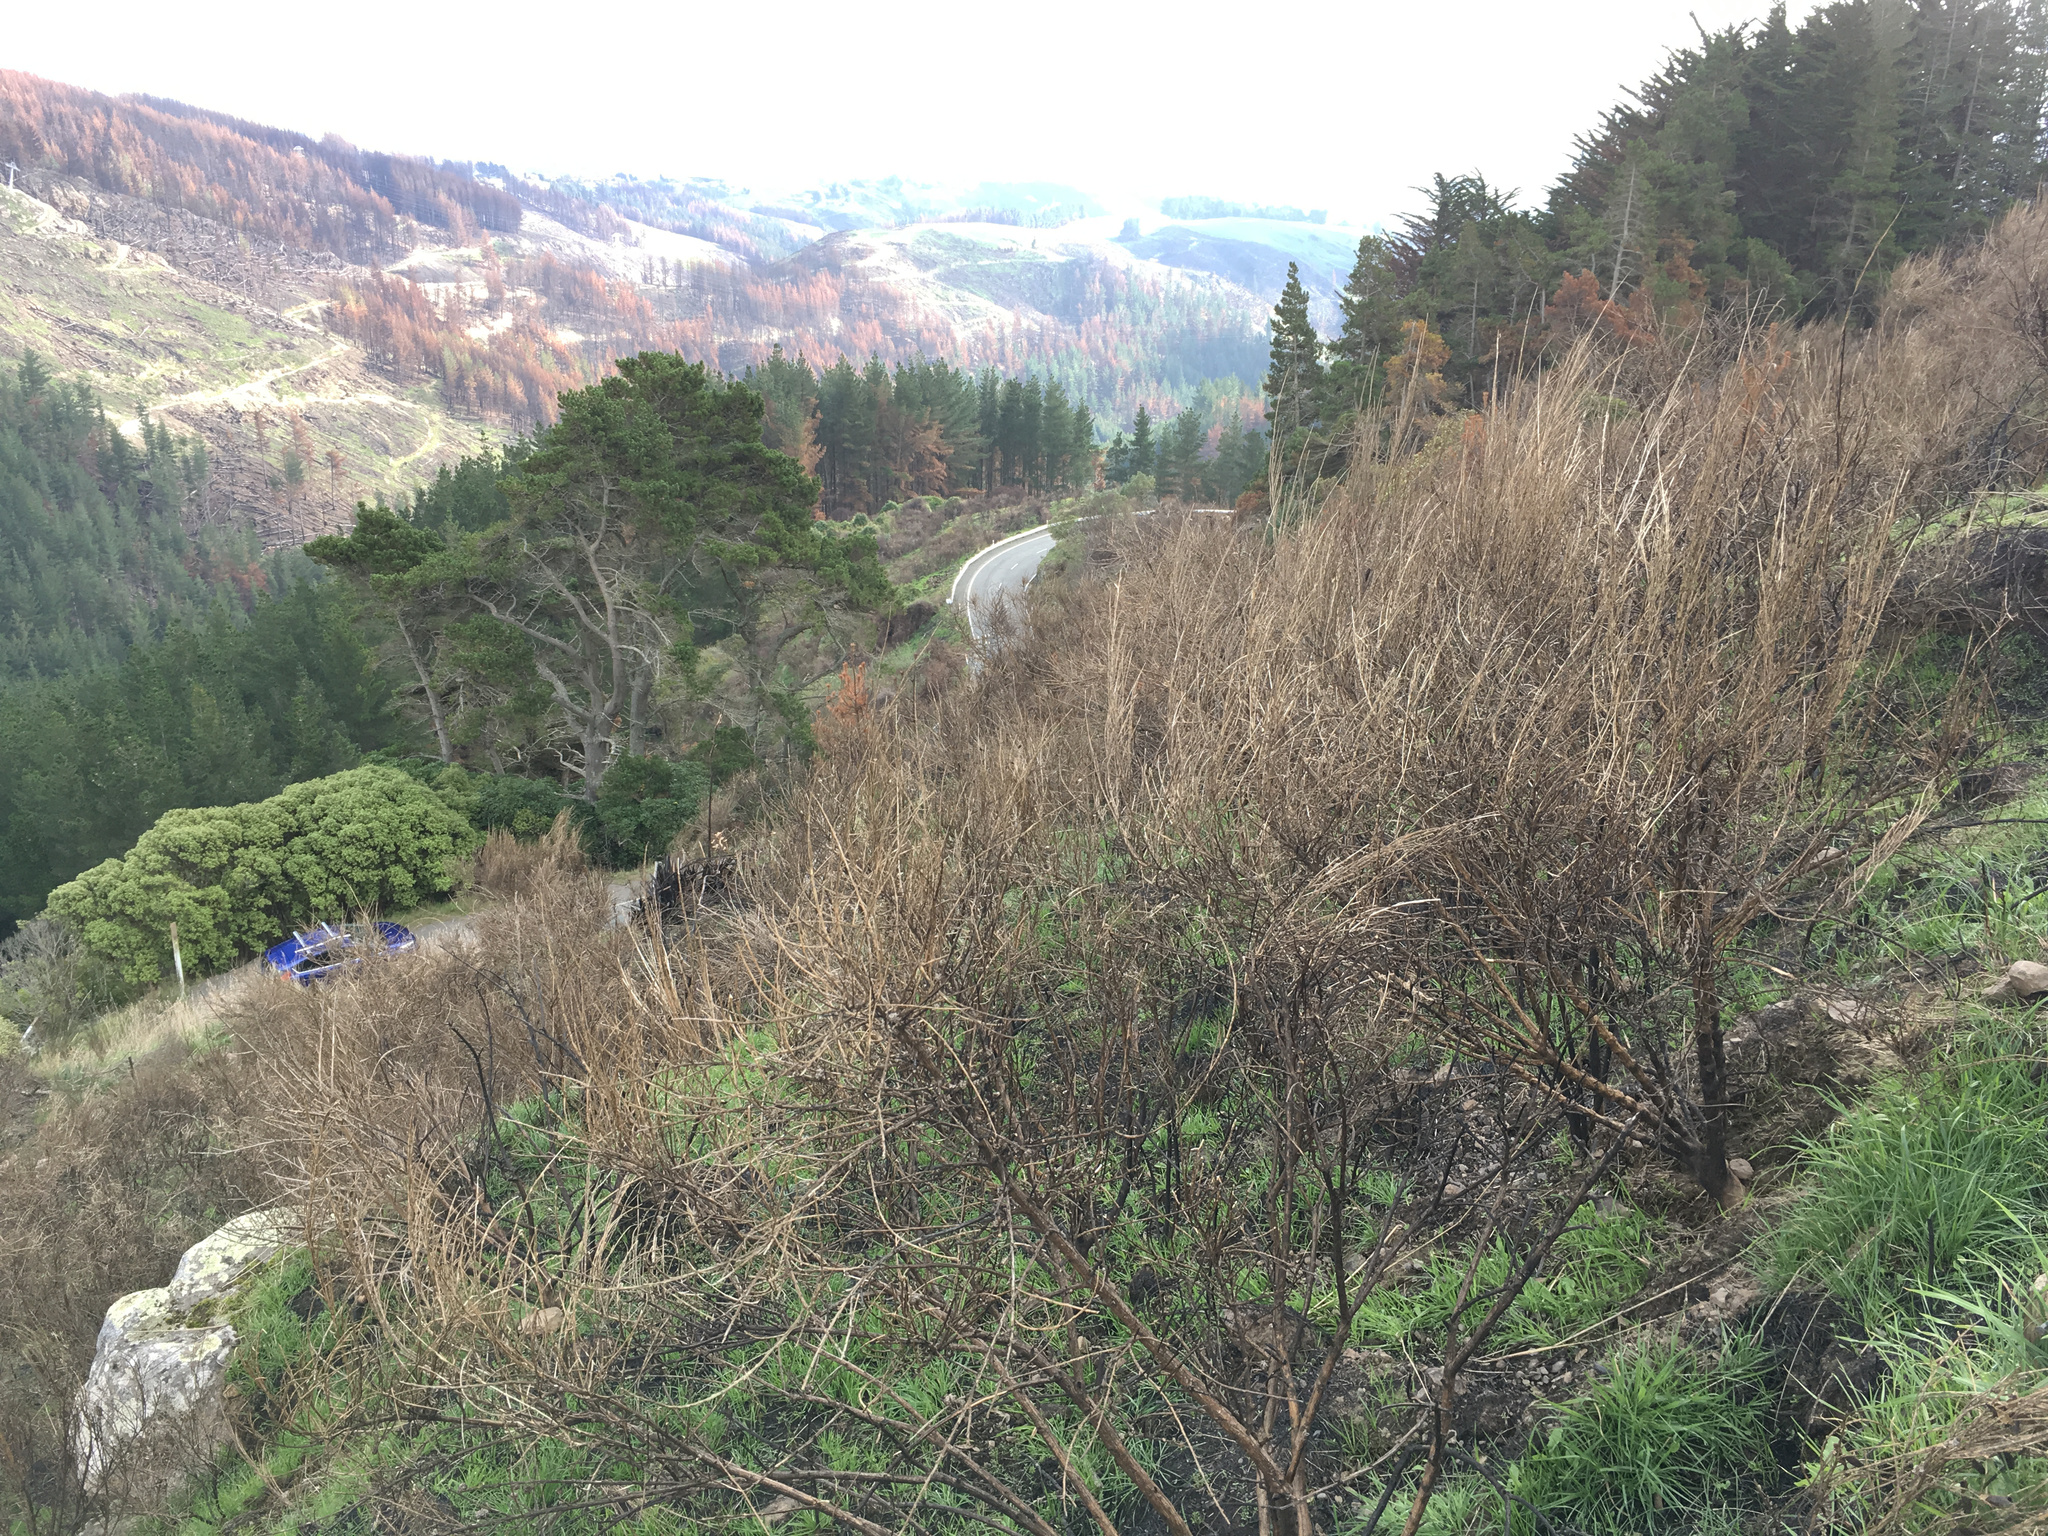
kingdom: Plantae
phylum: Tracheophyta
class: Magnoliopsida
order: Fabales
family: Fabaceae
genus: Cytisus
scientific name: Cytisus scoparius
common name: Scotch broom
